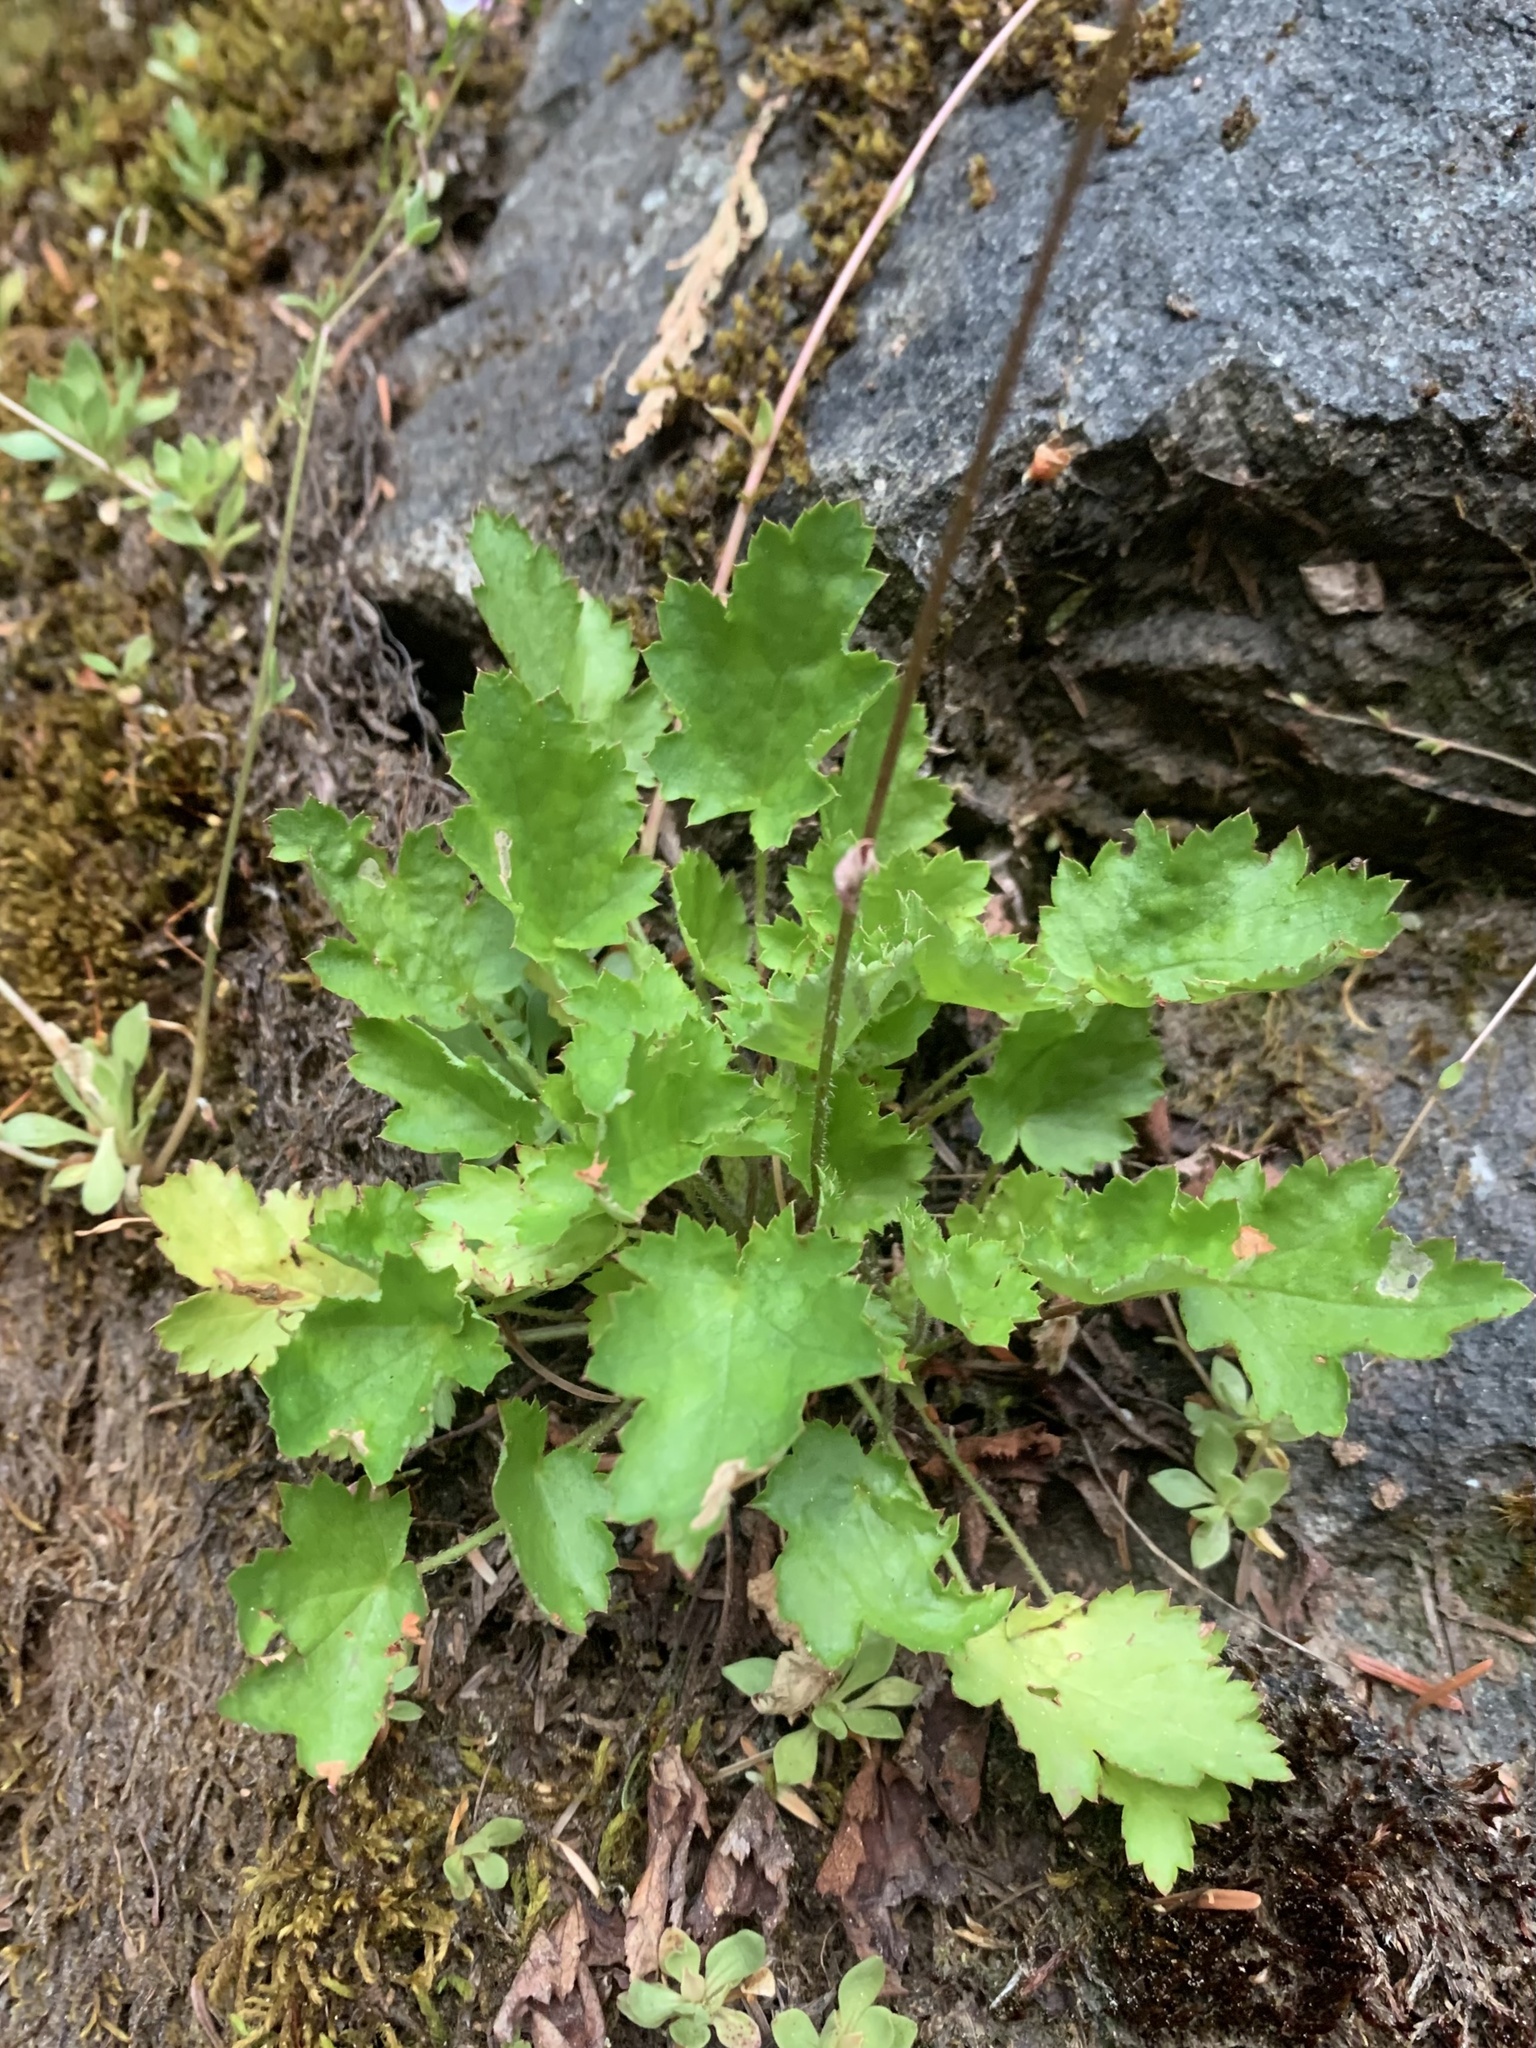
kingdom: Plantae
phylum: Tracheophyta
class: Magnoliopsida
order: Saxifragales
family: Saxifragaceae
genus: Heuchera
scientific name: Heuchera micrantha
